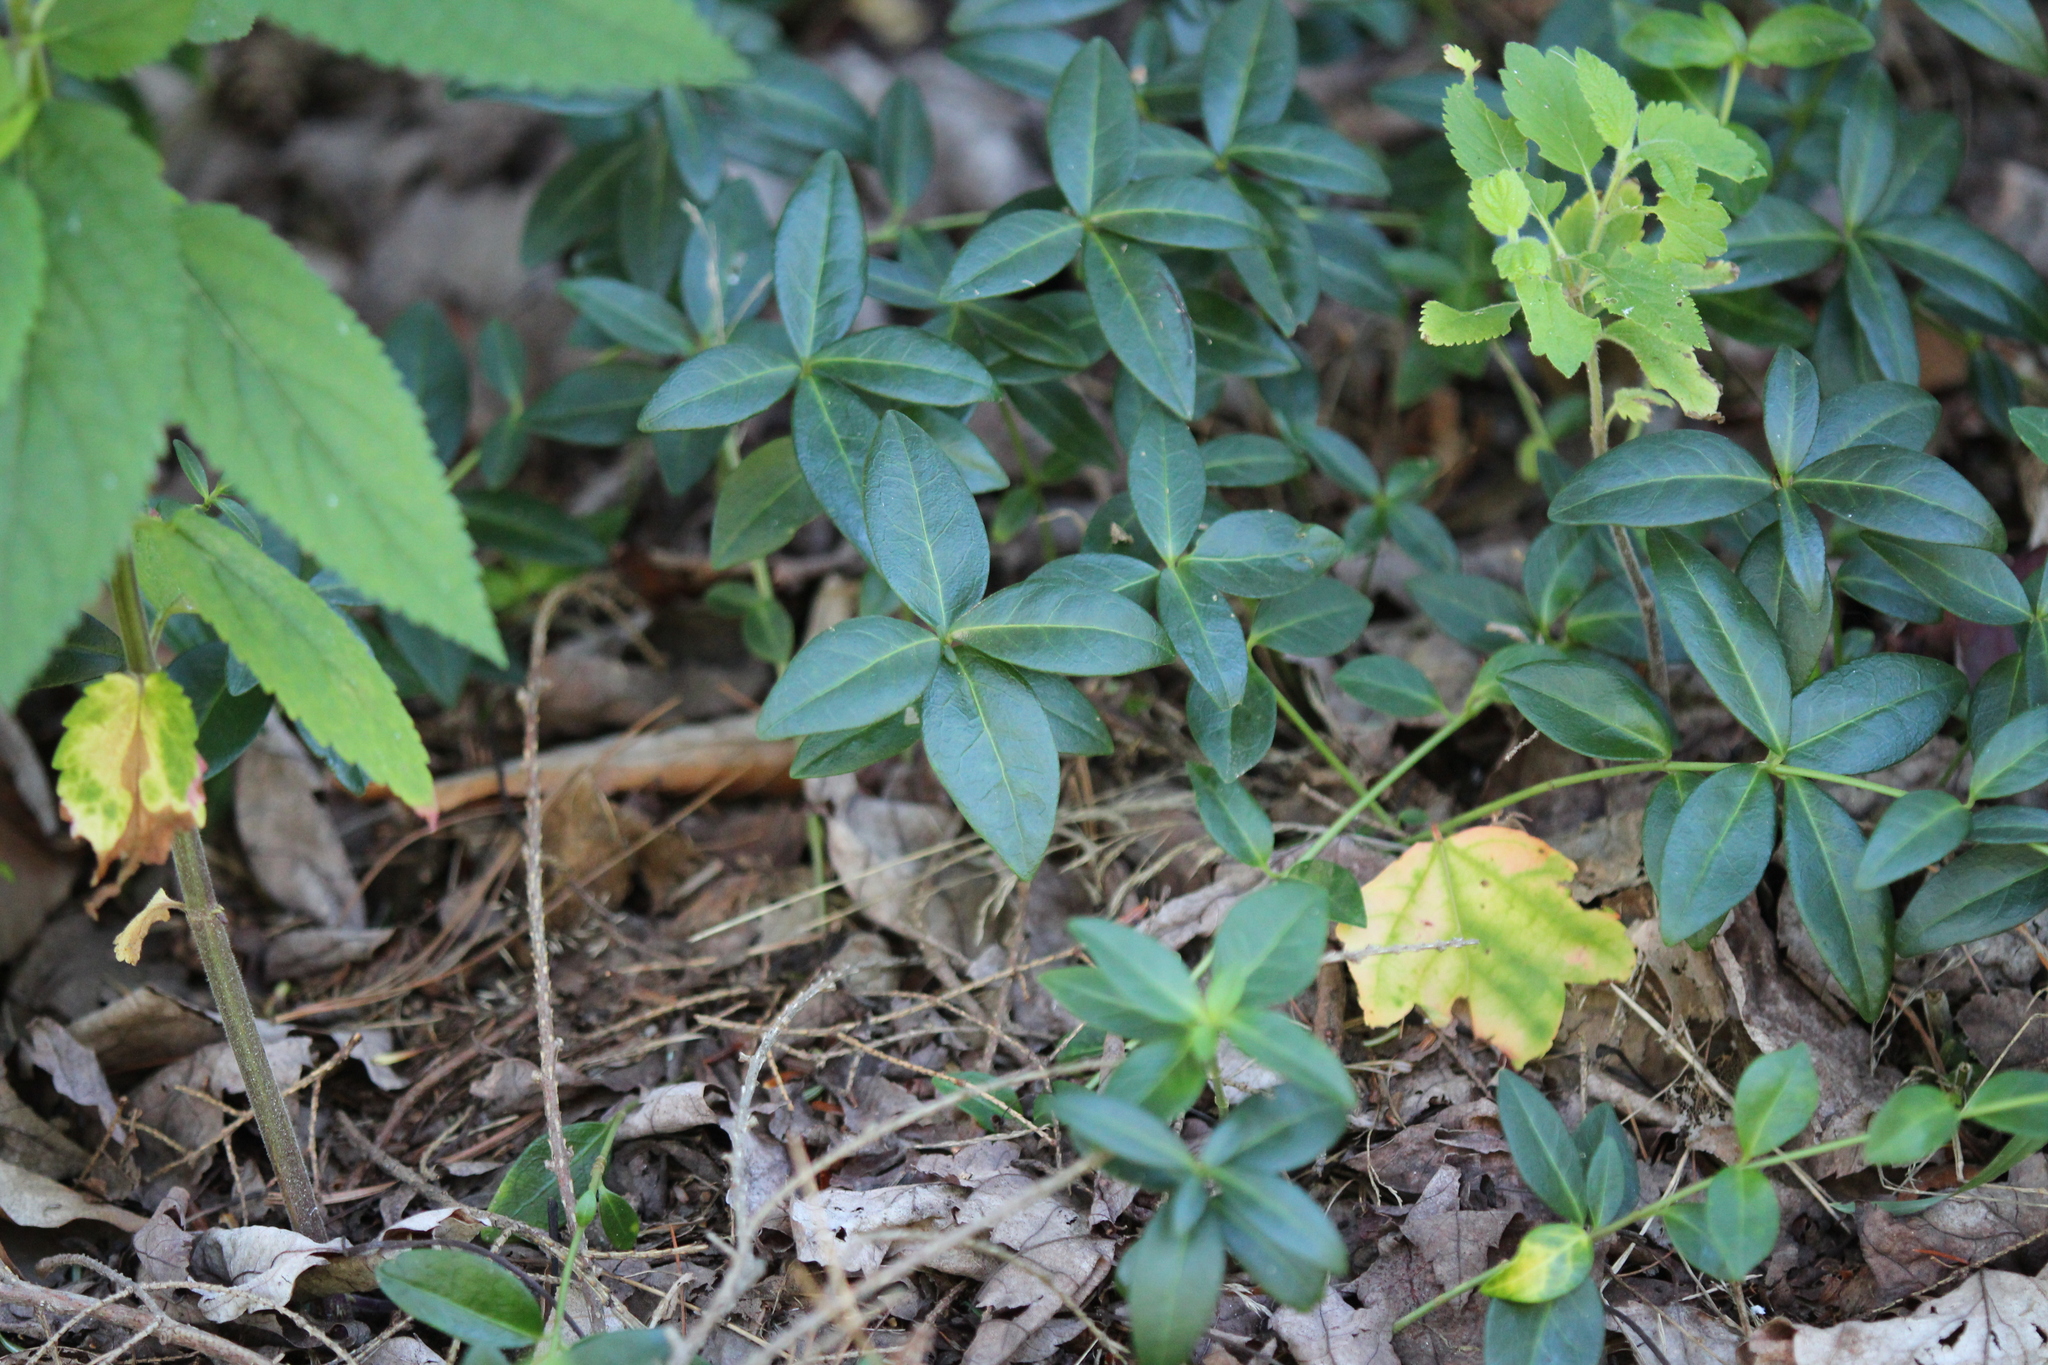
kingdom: Plantae
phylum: Tracheophyta
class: Magnoliopsida
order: Gentianales
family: Apocynaceae
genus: Vinca
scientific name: Vinca minor
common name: Lesser periwinkle
